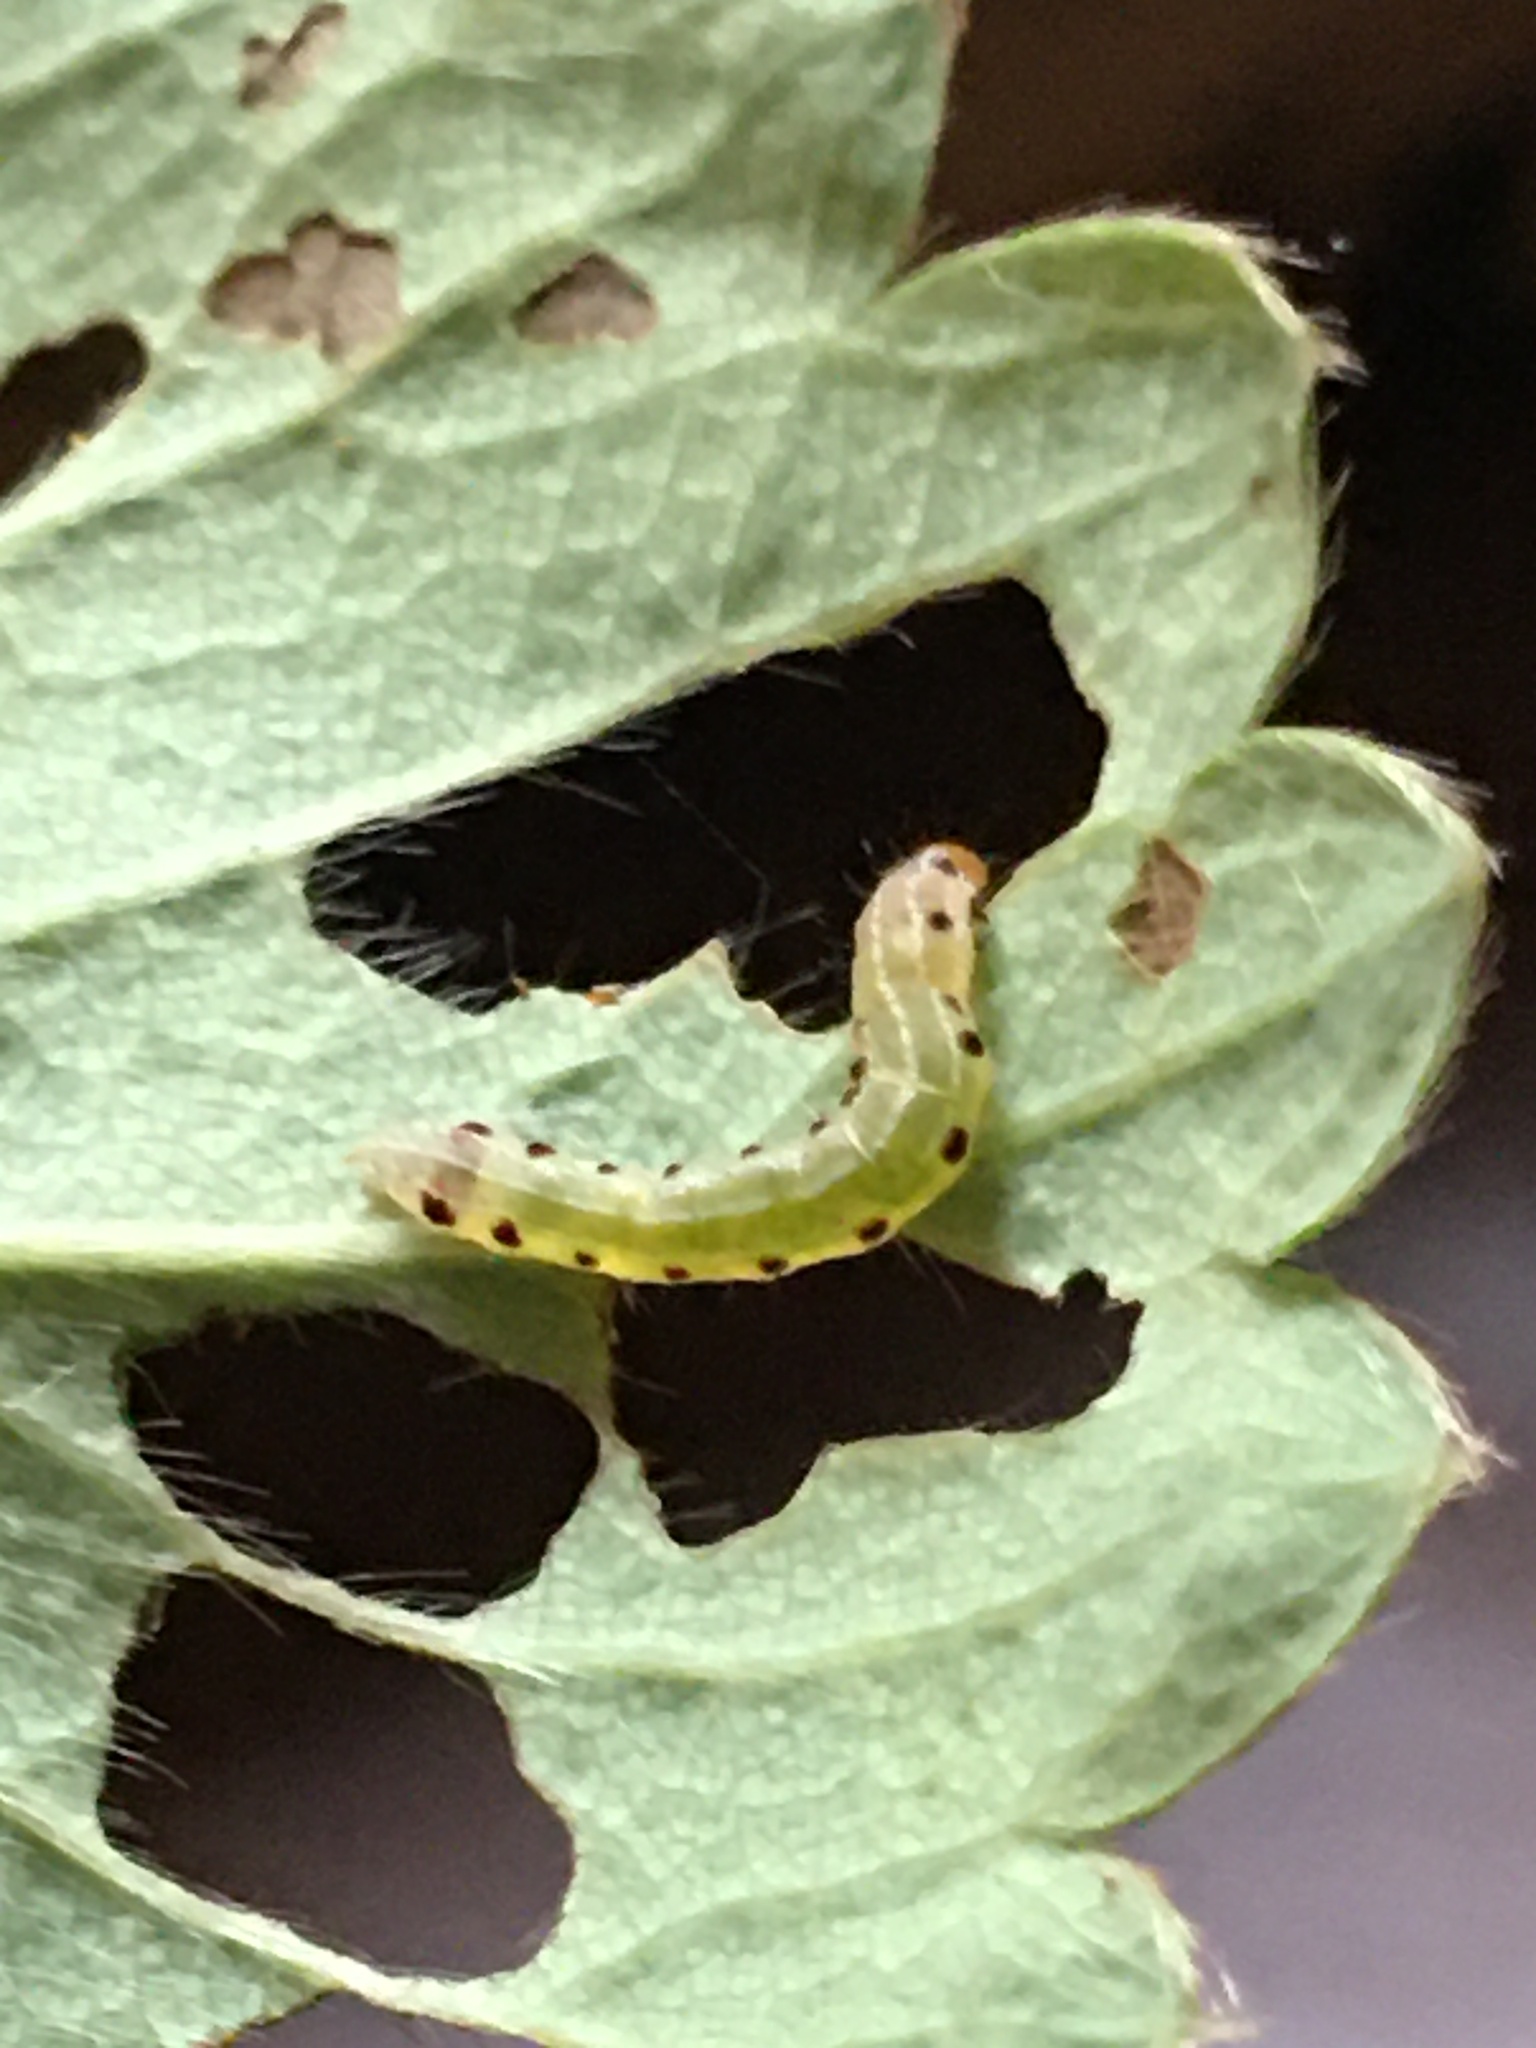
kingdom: Animalia
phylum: Arthropoda
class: Insecta
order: Lepidoptera
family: Noctuidae
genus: Achatia
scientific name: Achatia confusa
